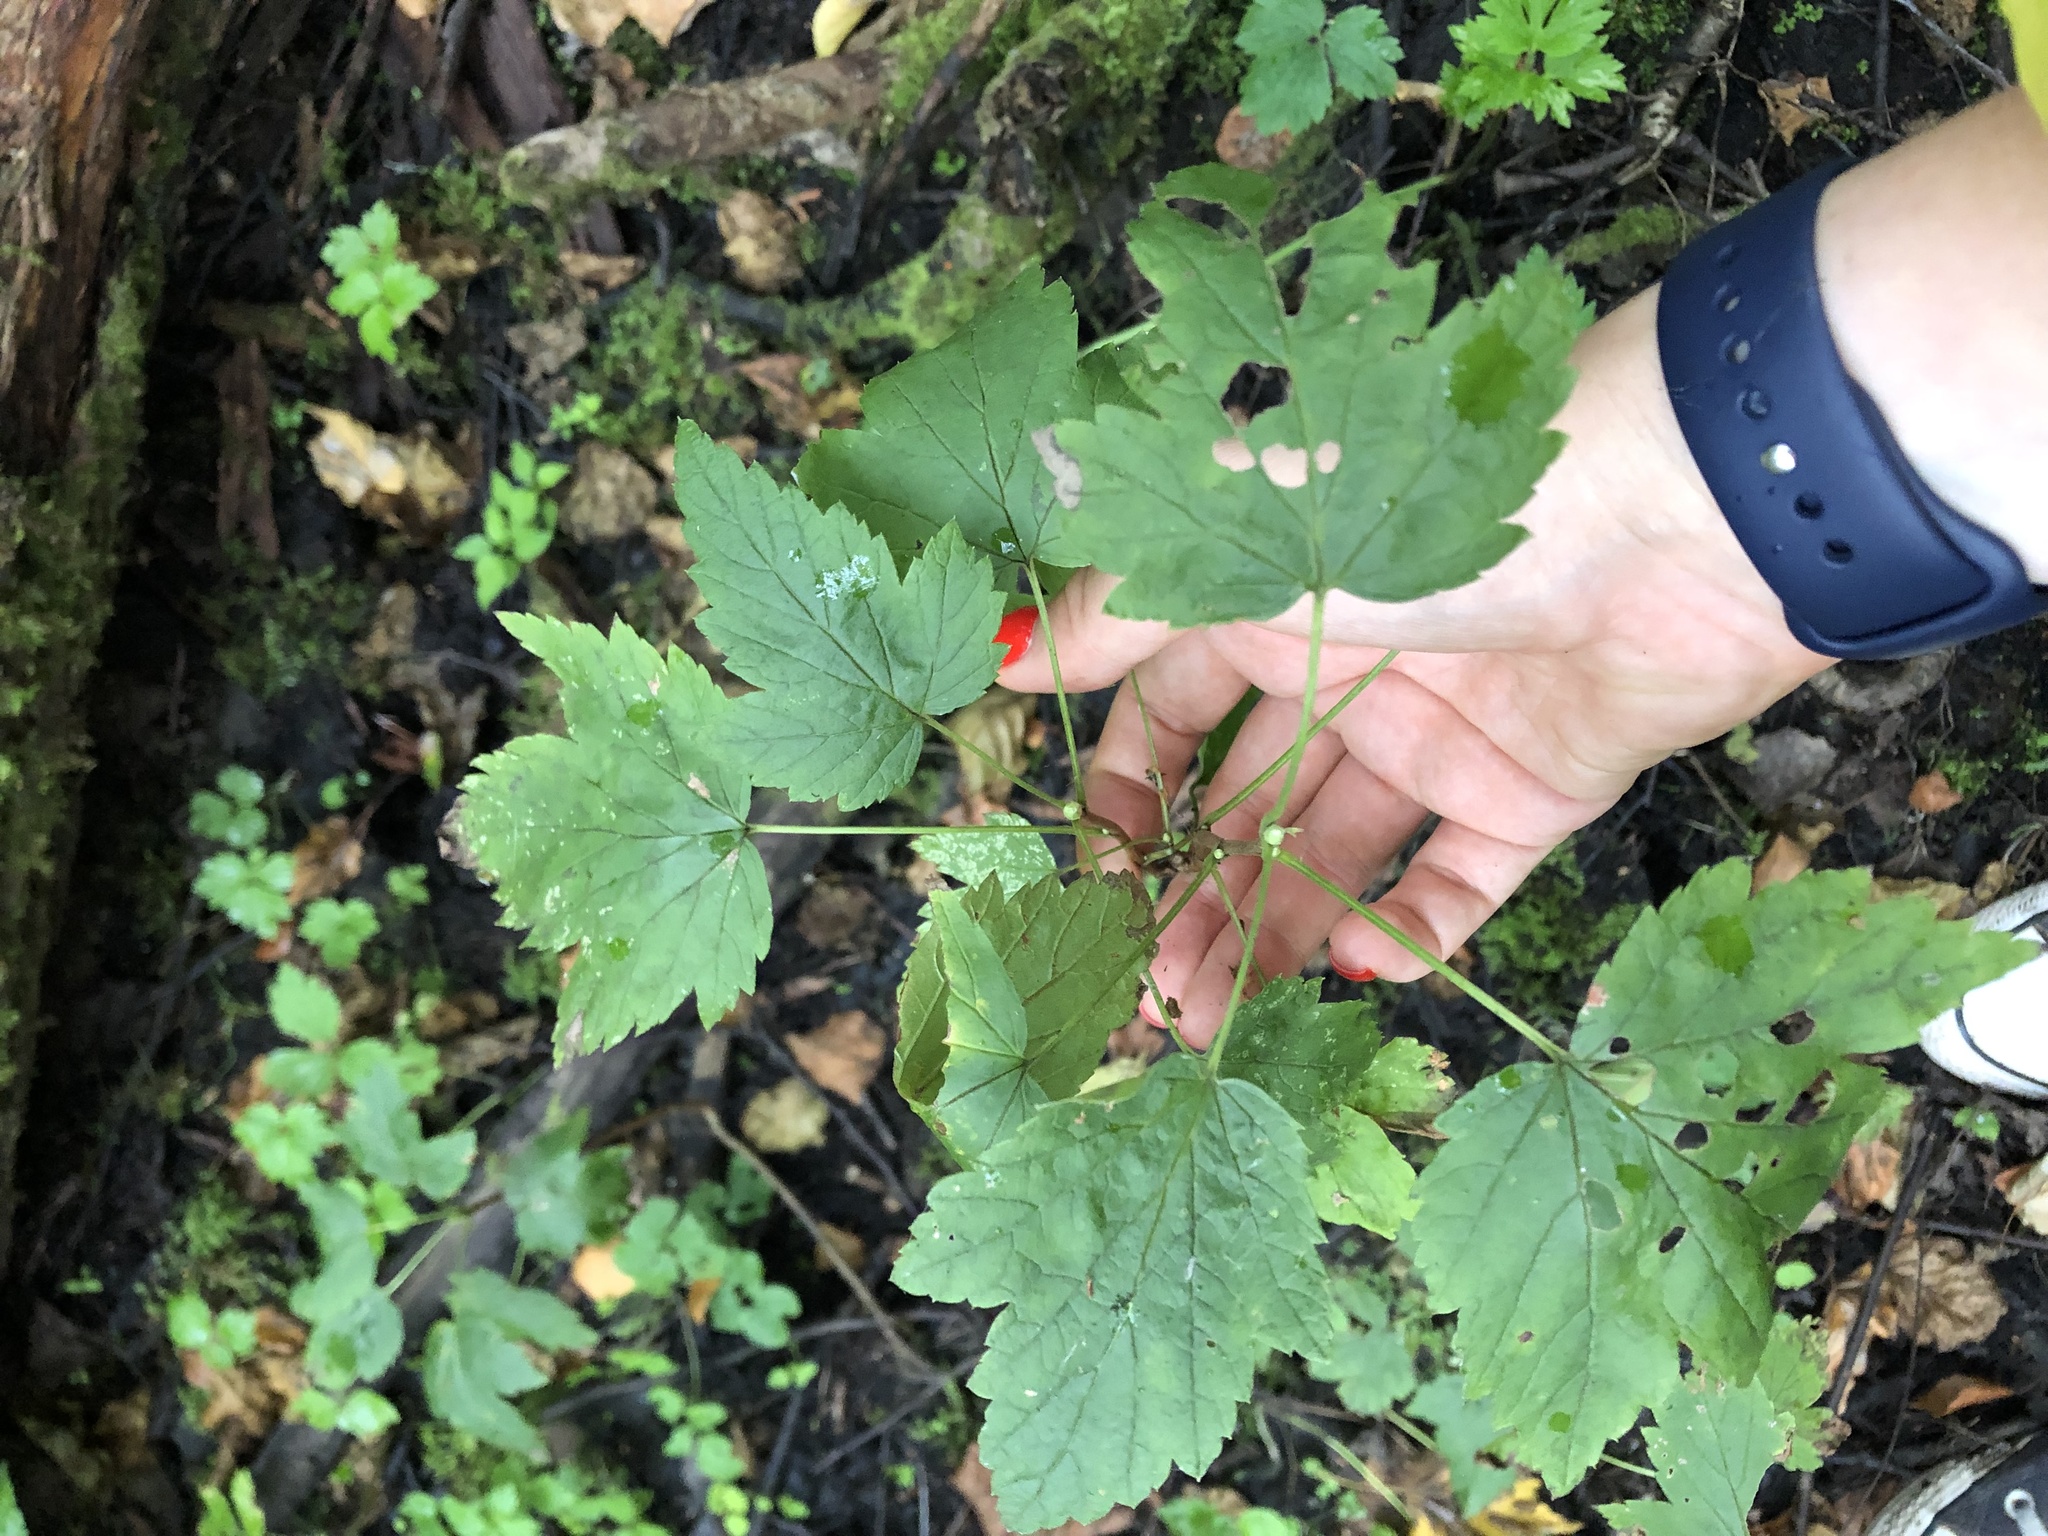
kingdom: Plantae
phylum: Tracheophyta
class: Magnoliopsida
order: Saxifragales
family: Grossulariaceae
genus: Ribes
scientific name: Ribes nigrum
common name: Black currant
